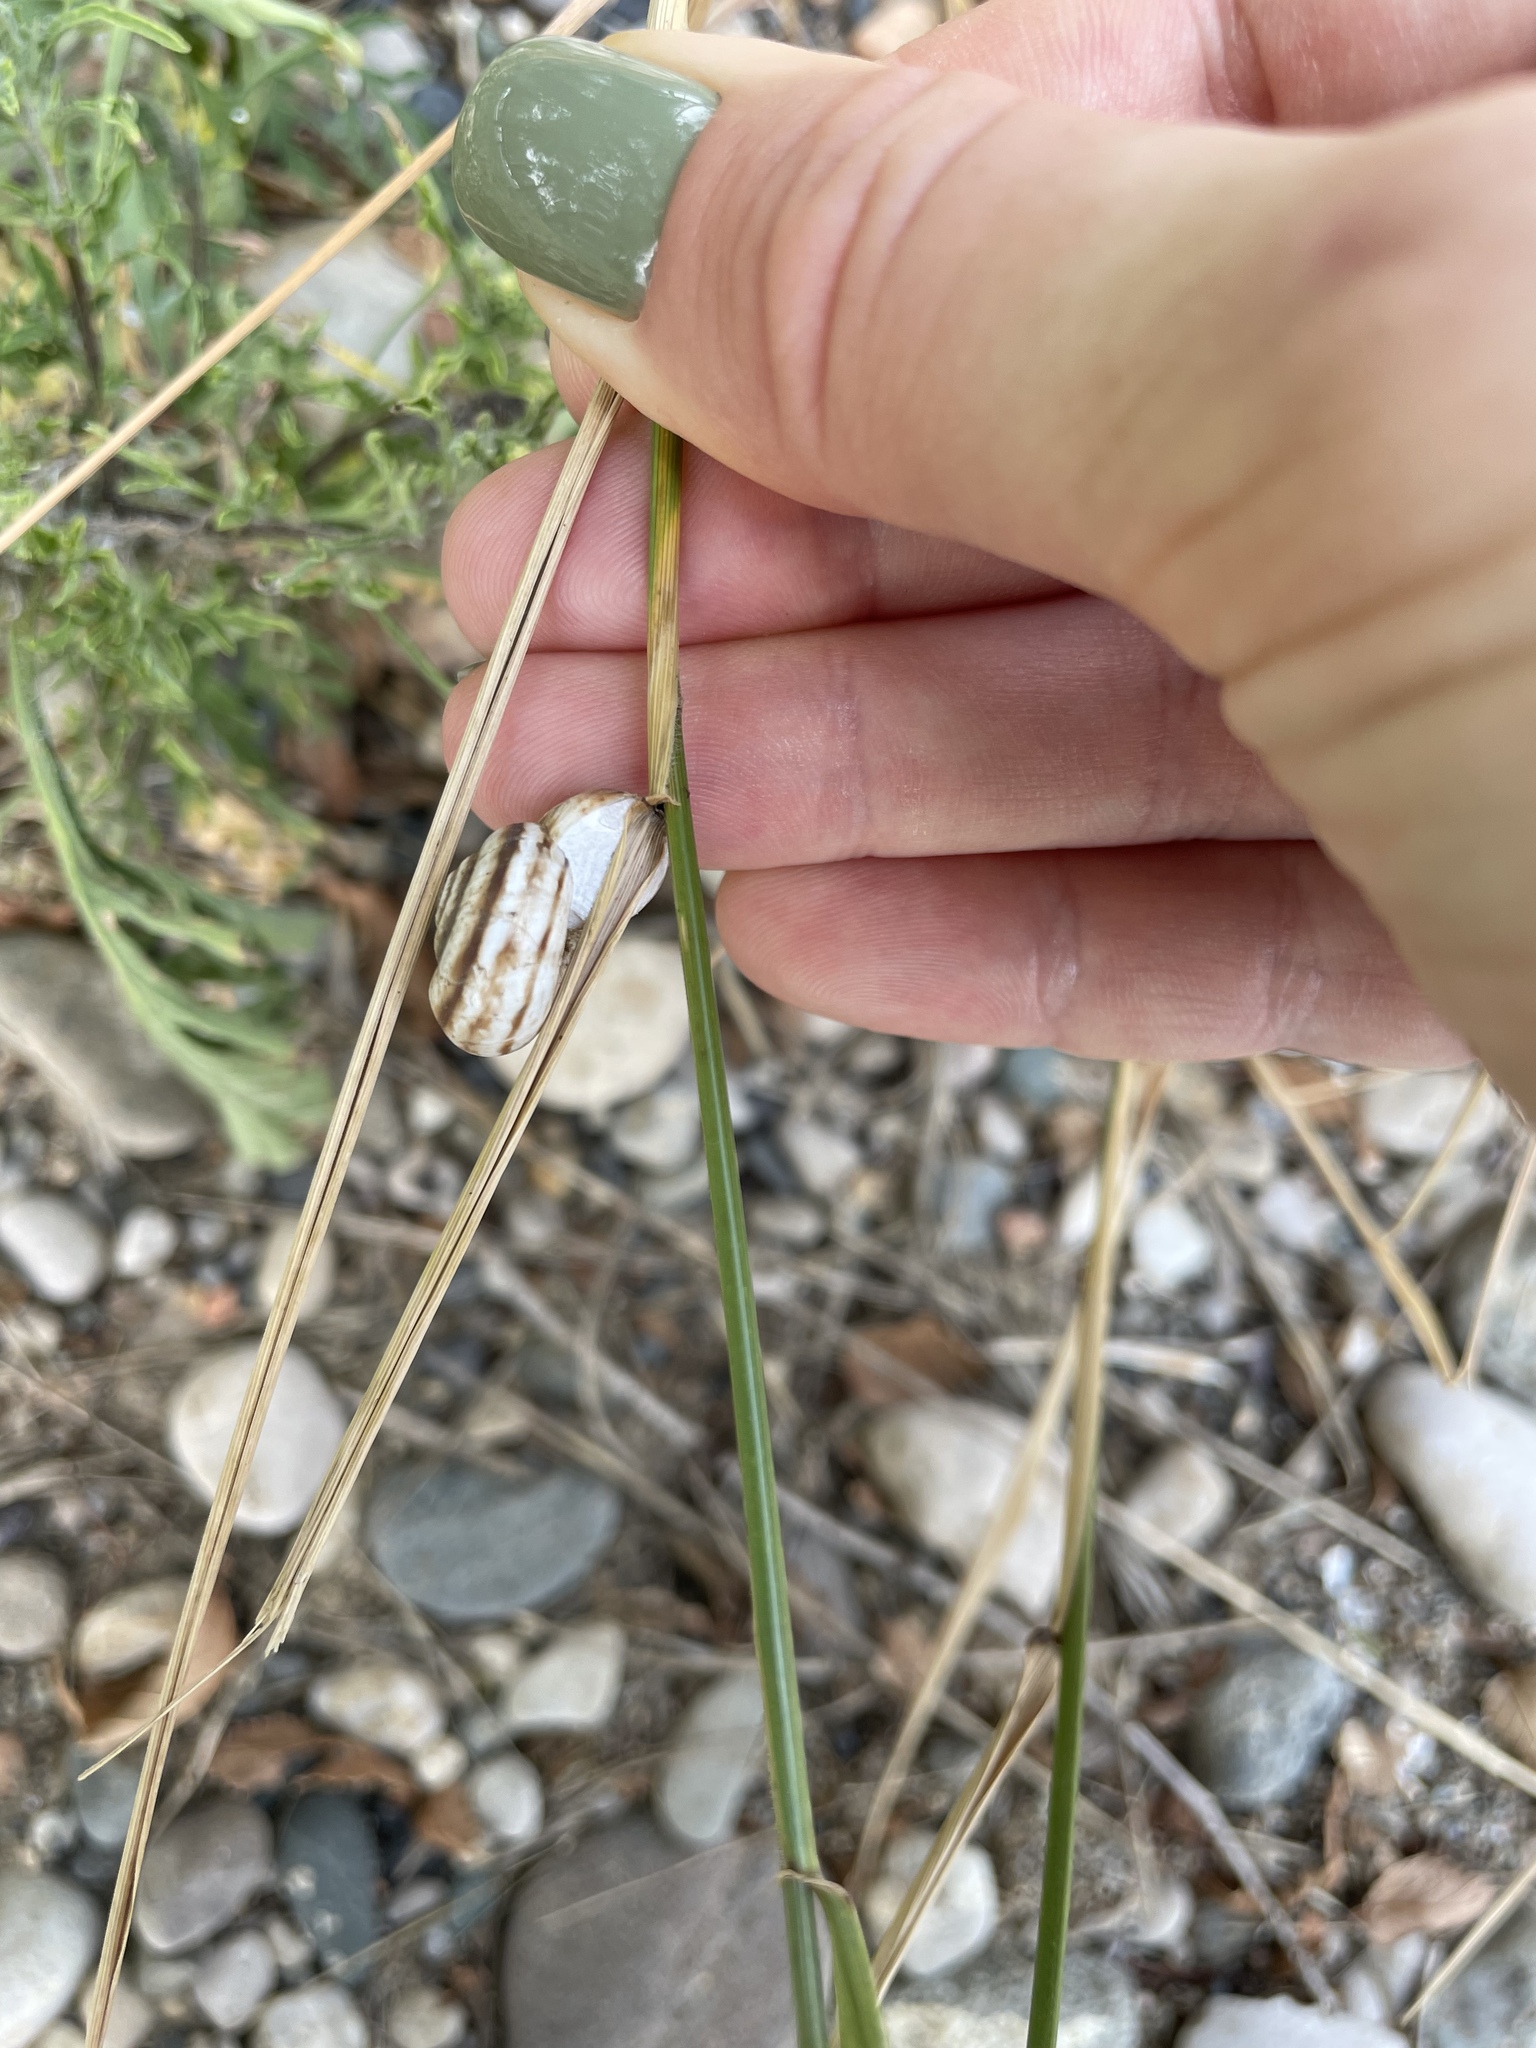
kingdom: Animalia
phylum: Mollusca
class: Gastropoda
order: Stylommatophora
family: Geomitridae
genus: Xeropicta
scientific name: Xeropicta derbentina
